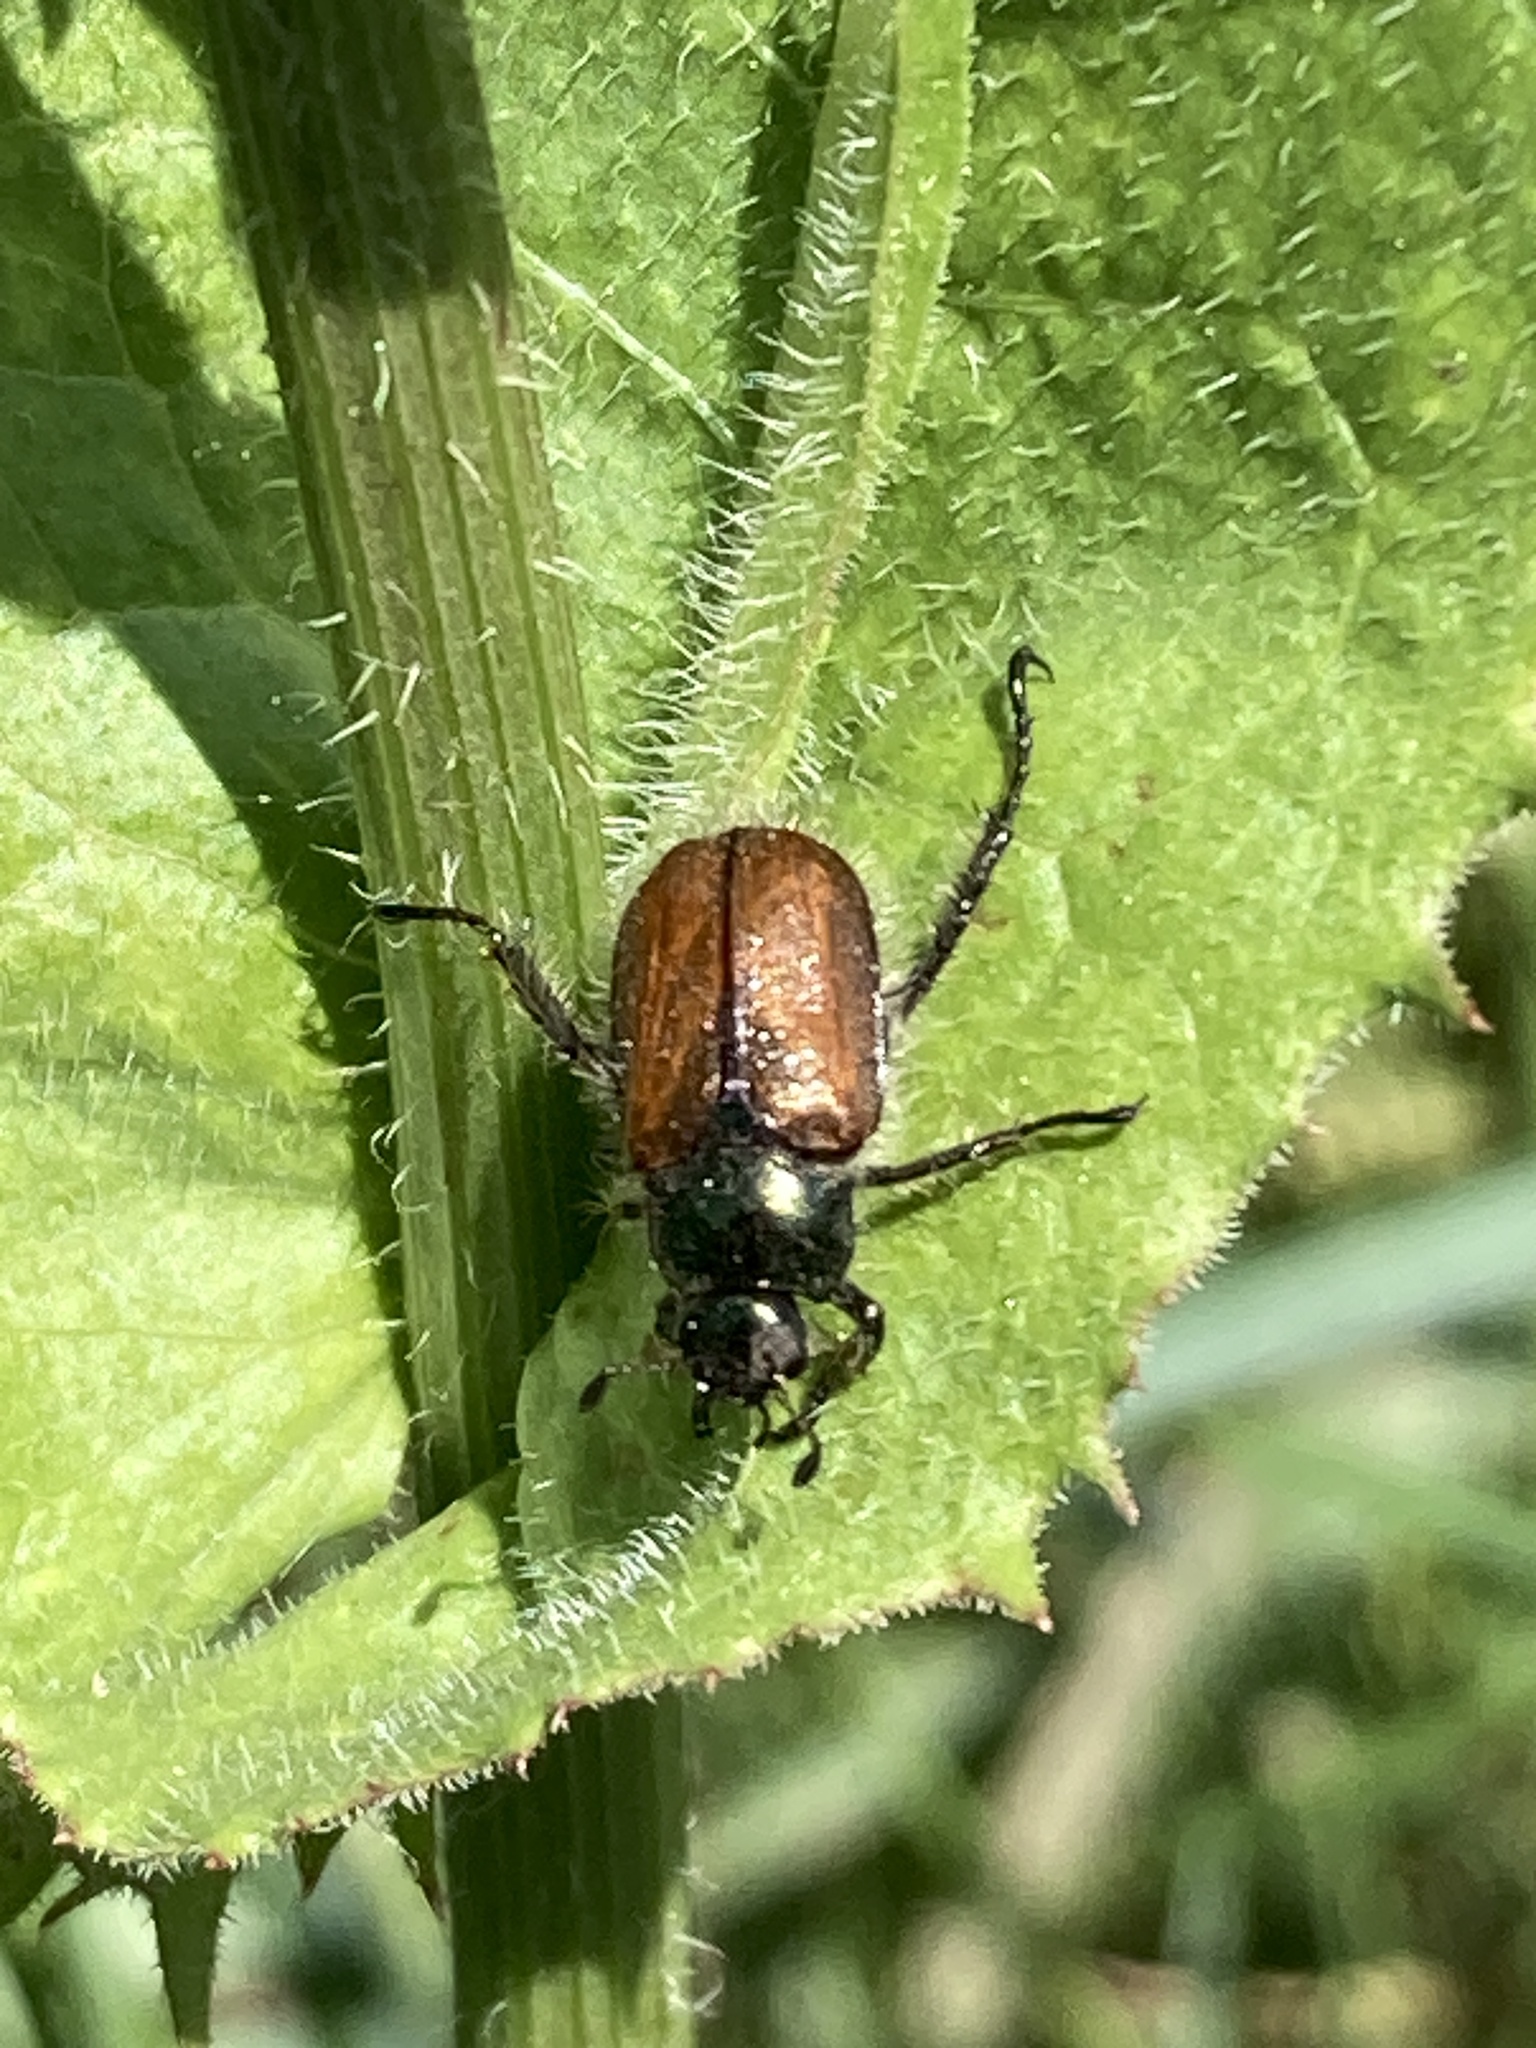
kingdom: Animalia
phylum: Arthropoda
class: Insecta
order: Coleoptera
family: Scarabaeidae
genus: Phyllopertha
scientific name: Phyllopertha horticola
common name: Garden chafer
